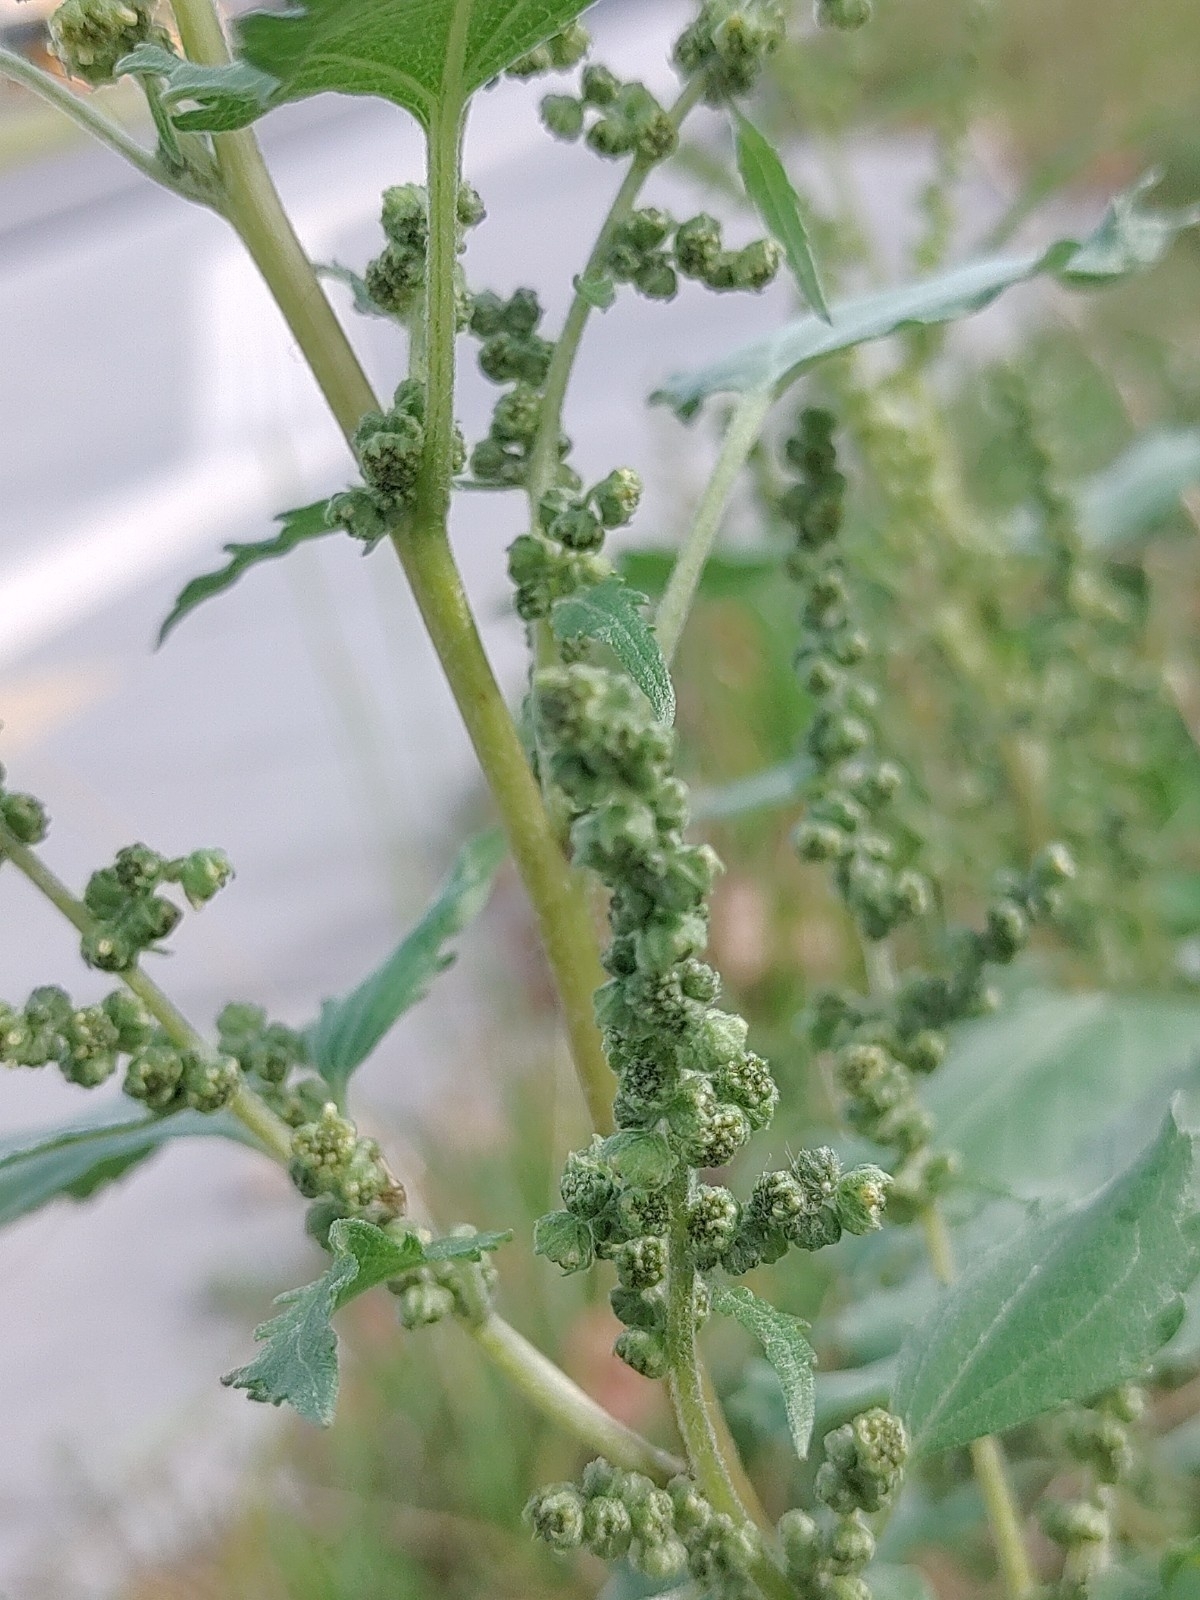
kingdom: Plantae
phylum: Tracheophyta
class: Magnoliopsida
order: Asterales
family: Asteraceae
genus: Cyclachaena
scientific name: Cyclachaena xanthiifolia
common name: Giant sumpweed
